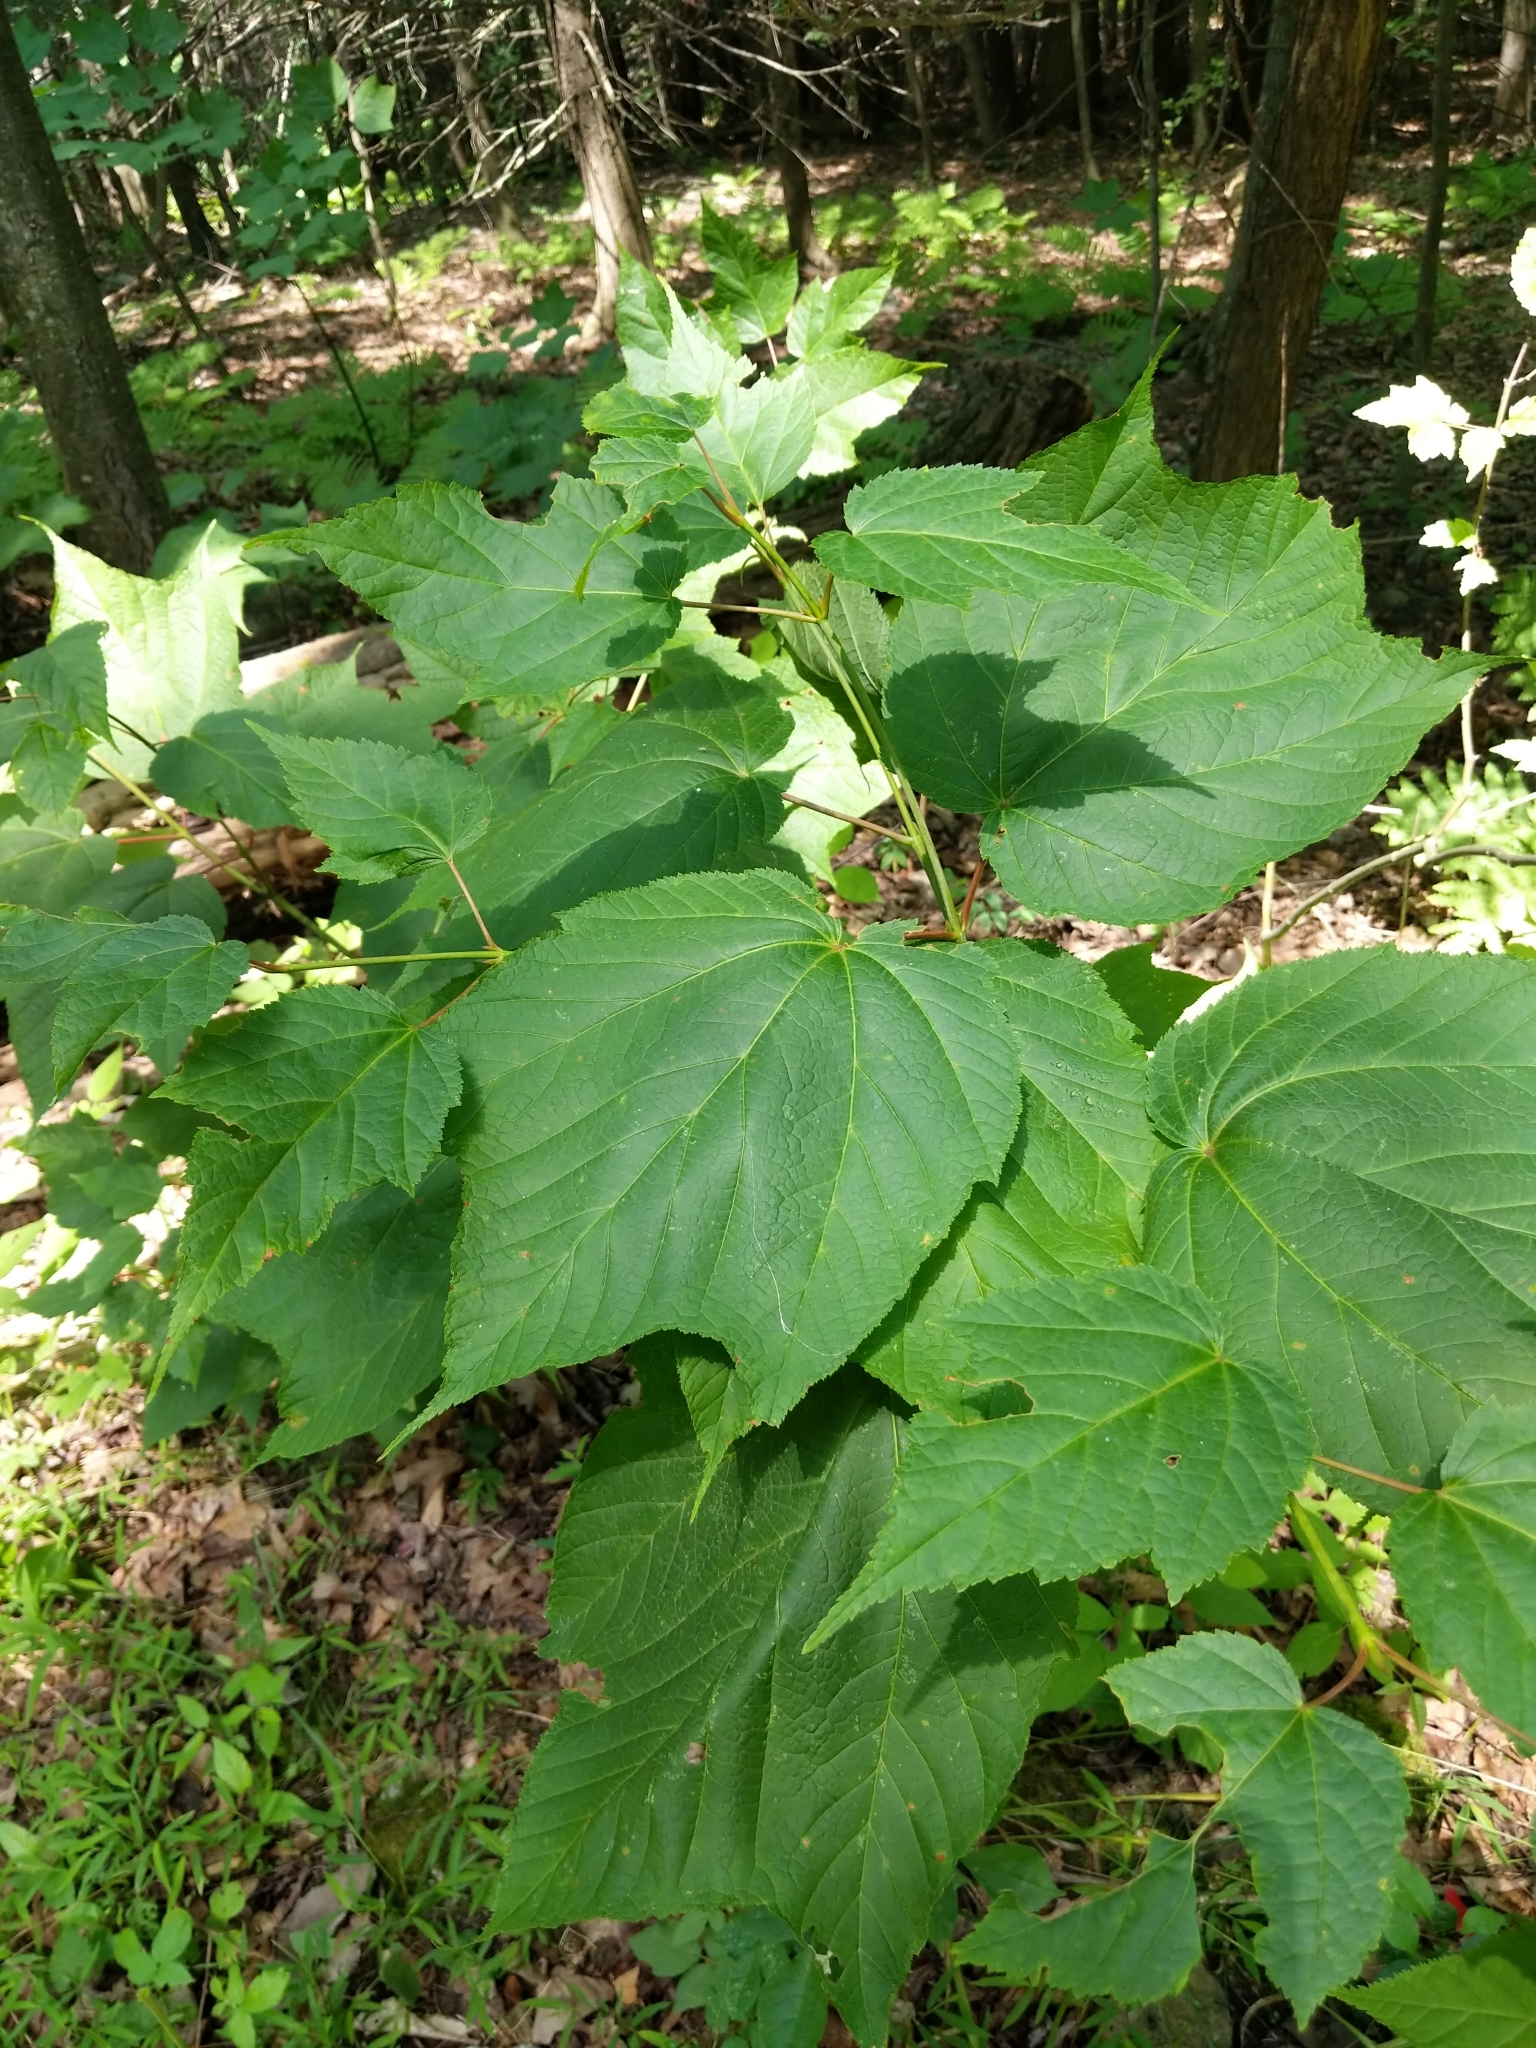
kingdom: Plantae
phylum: Tracheophyta
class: Magnoliopsida
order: Sapindales
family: Sapindaceae
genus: Acer
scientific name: Acer pensylvanicum
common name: Moosewood
